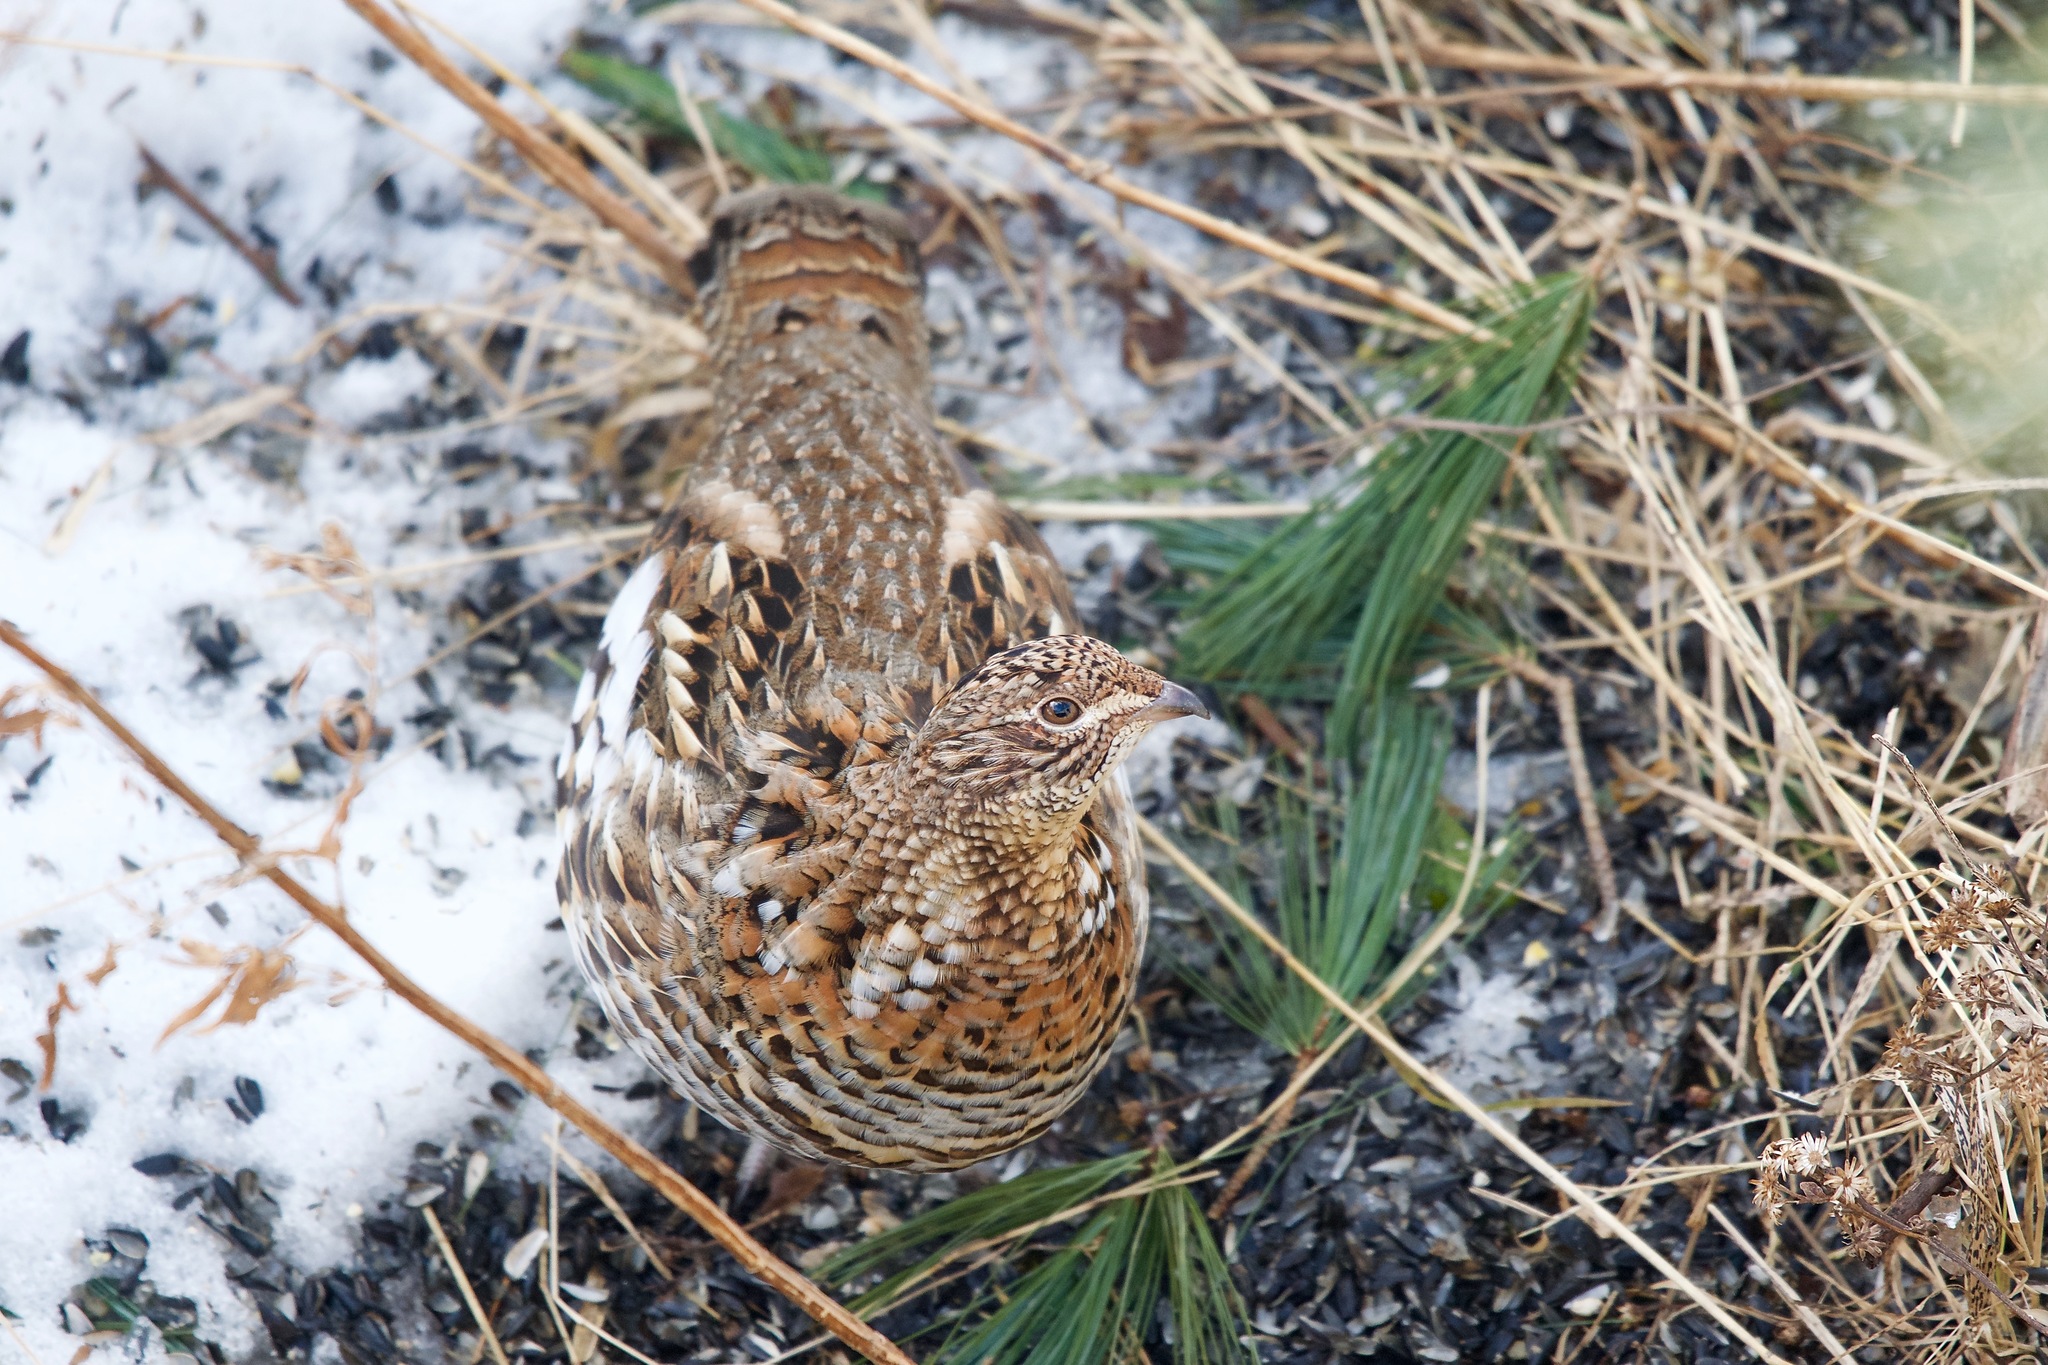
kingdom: Animalia
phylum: Chordata
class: Aves
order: Galliformes
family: Phasianidae
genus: Bonasa
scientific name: Bonasa umbellus
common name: Ruffed grouse
